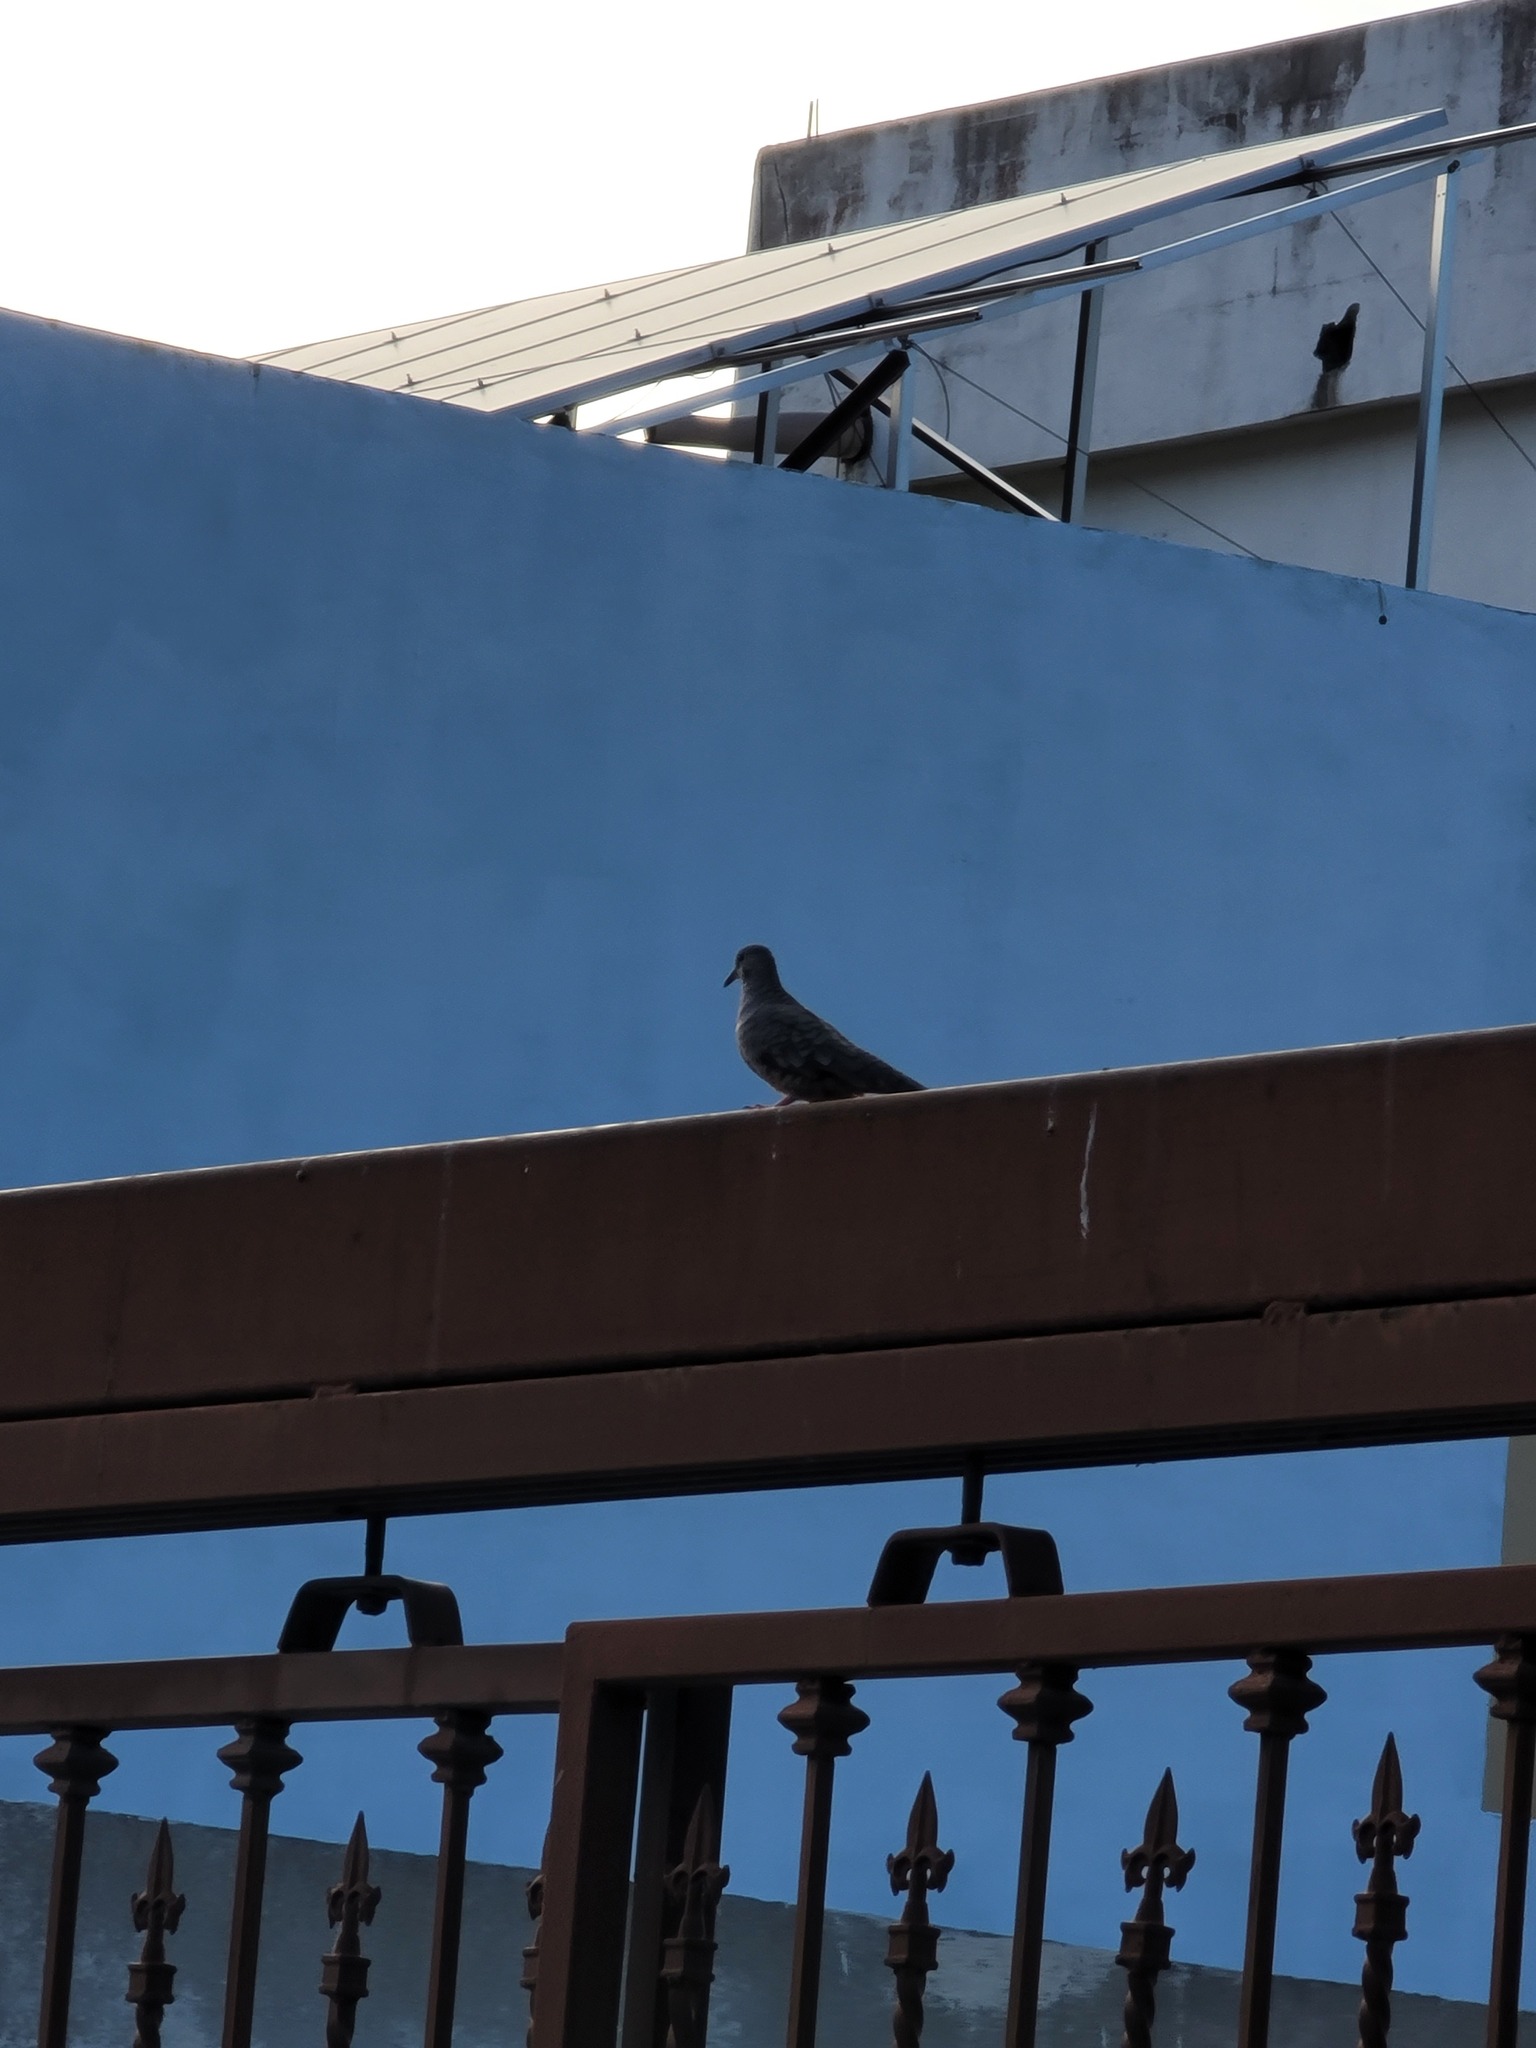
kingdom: Animalia
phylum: Chordata
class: Aves
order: Columbiformes
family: Columbidae
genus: Columbina
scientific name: Columbina inca
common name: Inca dove
